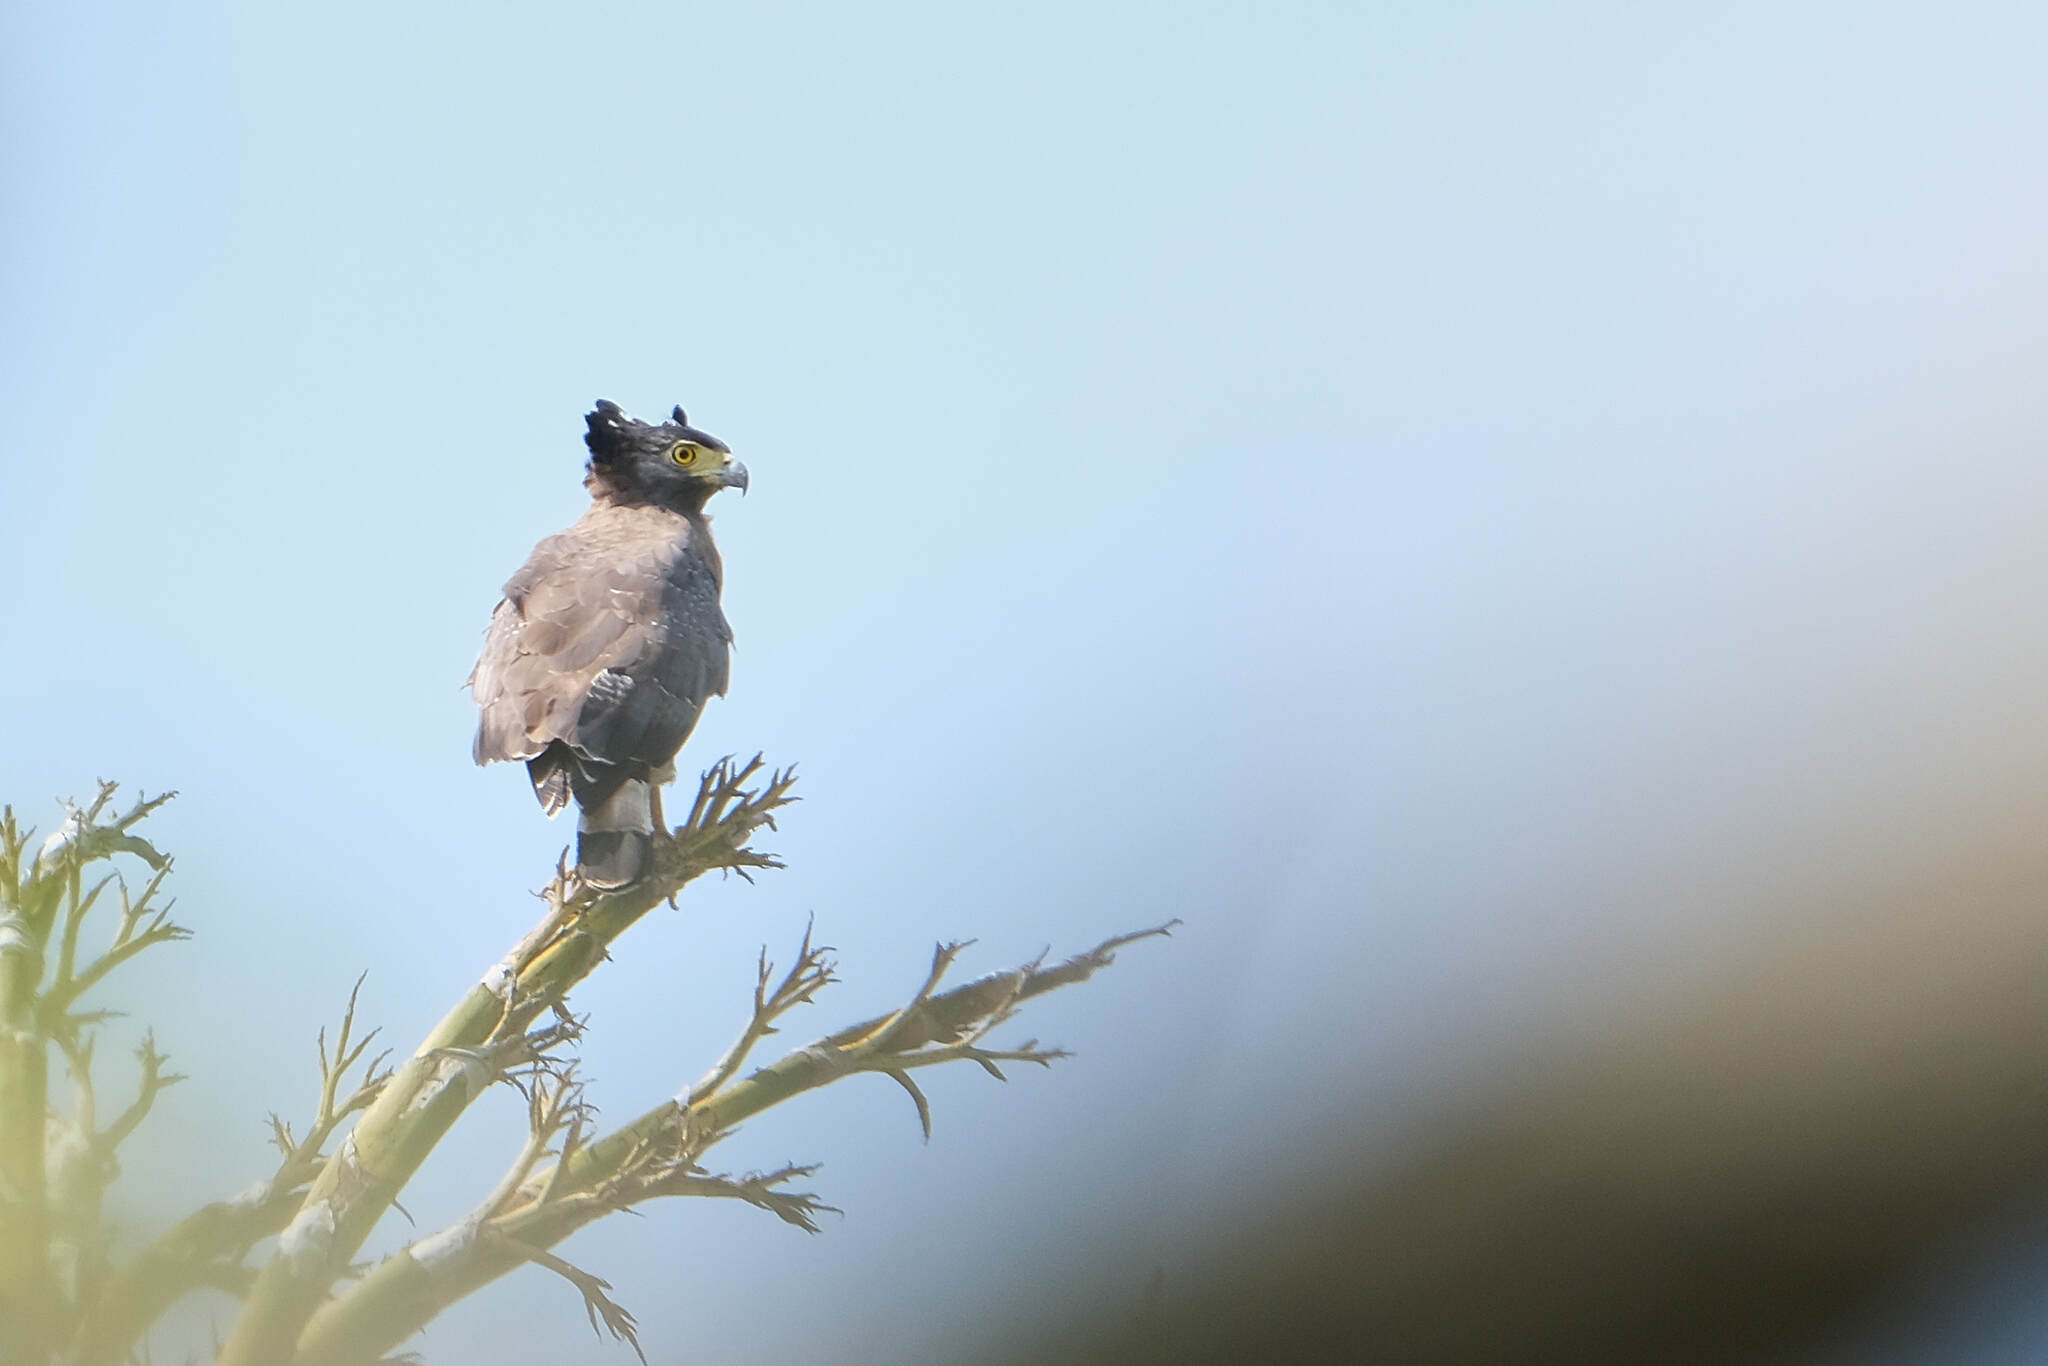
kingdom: Animalia
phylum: Chordata
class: Aves
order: Accipitriformes
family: Accipitridae
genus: Spilornis
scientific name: Spilornis cheela
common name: Crested serpent eagle
